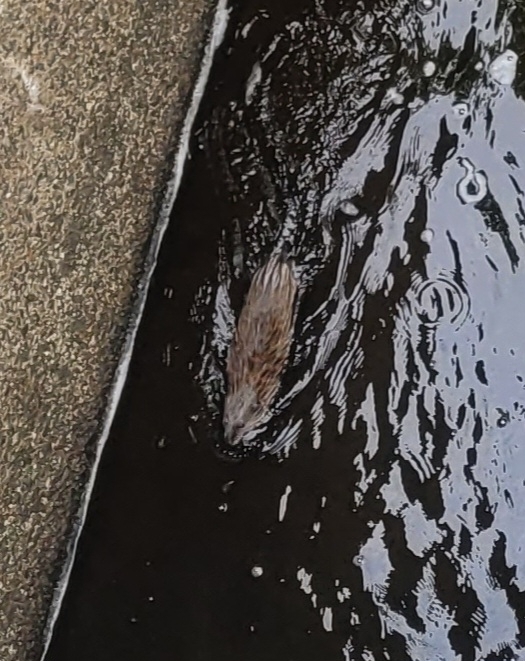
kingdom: Animalia
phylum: Chordata
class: Mammalia
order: Rodentia
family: Cricetidae
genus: Ondatra
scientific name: Ondatra zibethicus
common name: Muskrat
